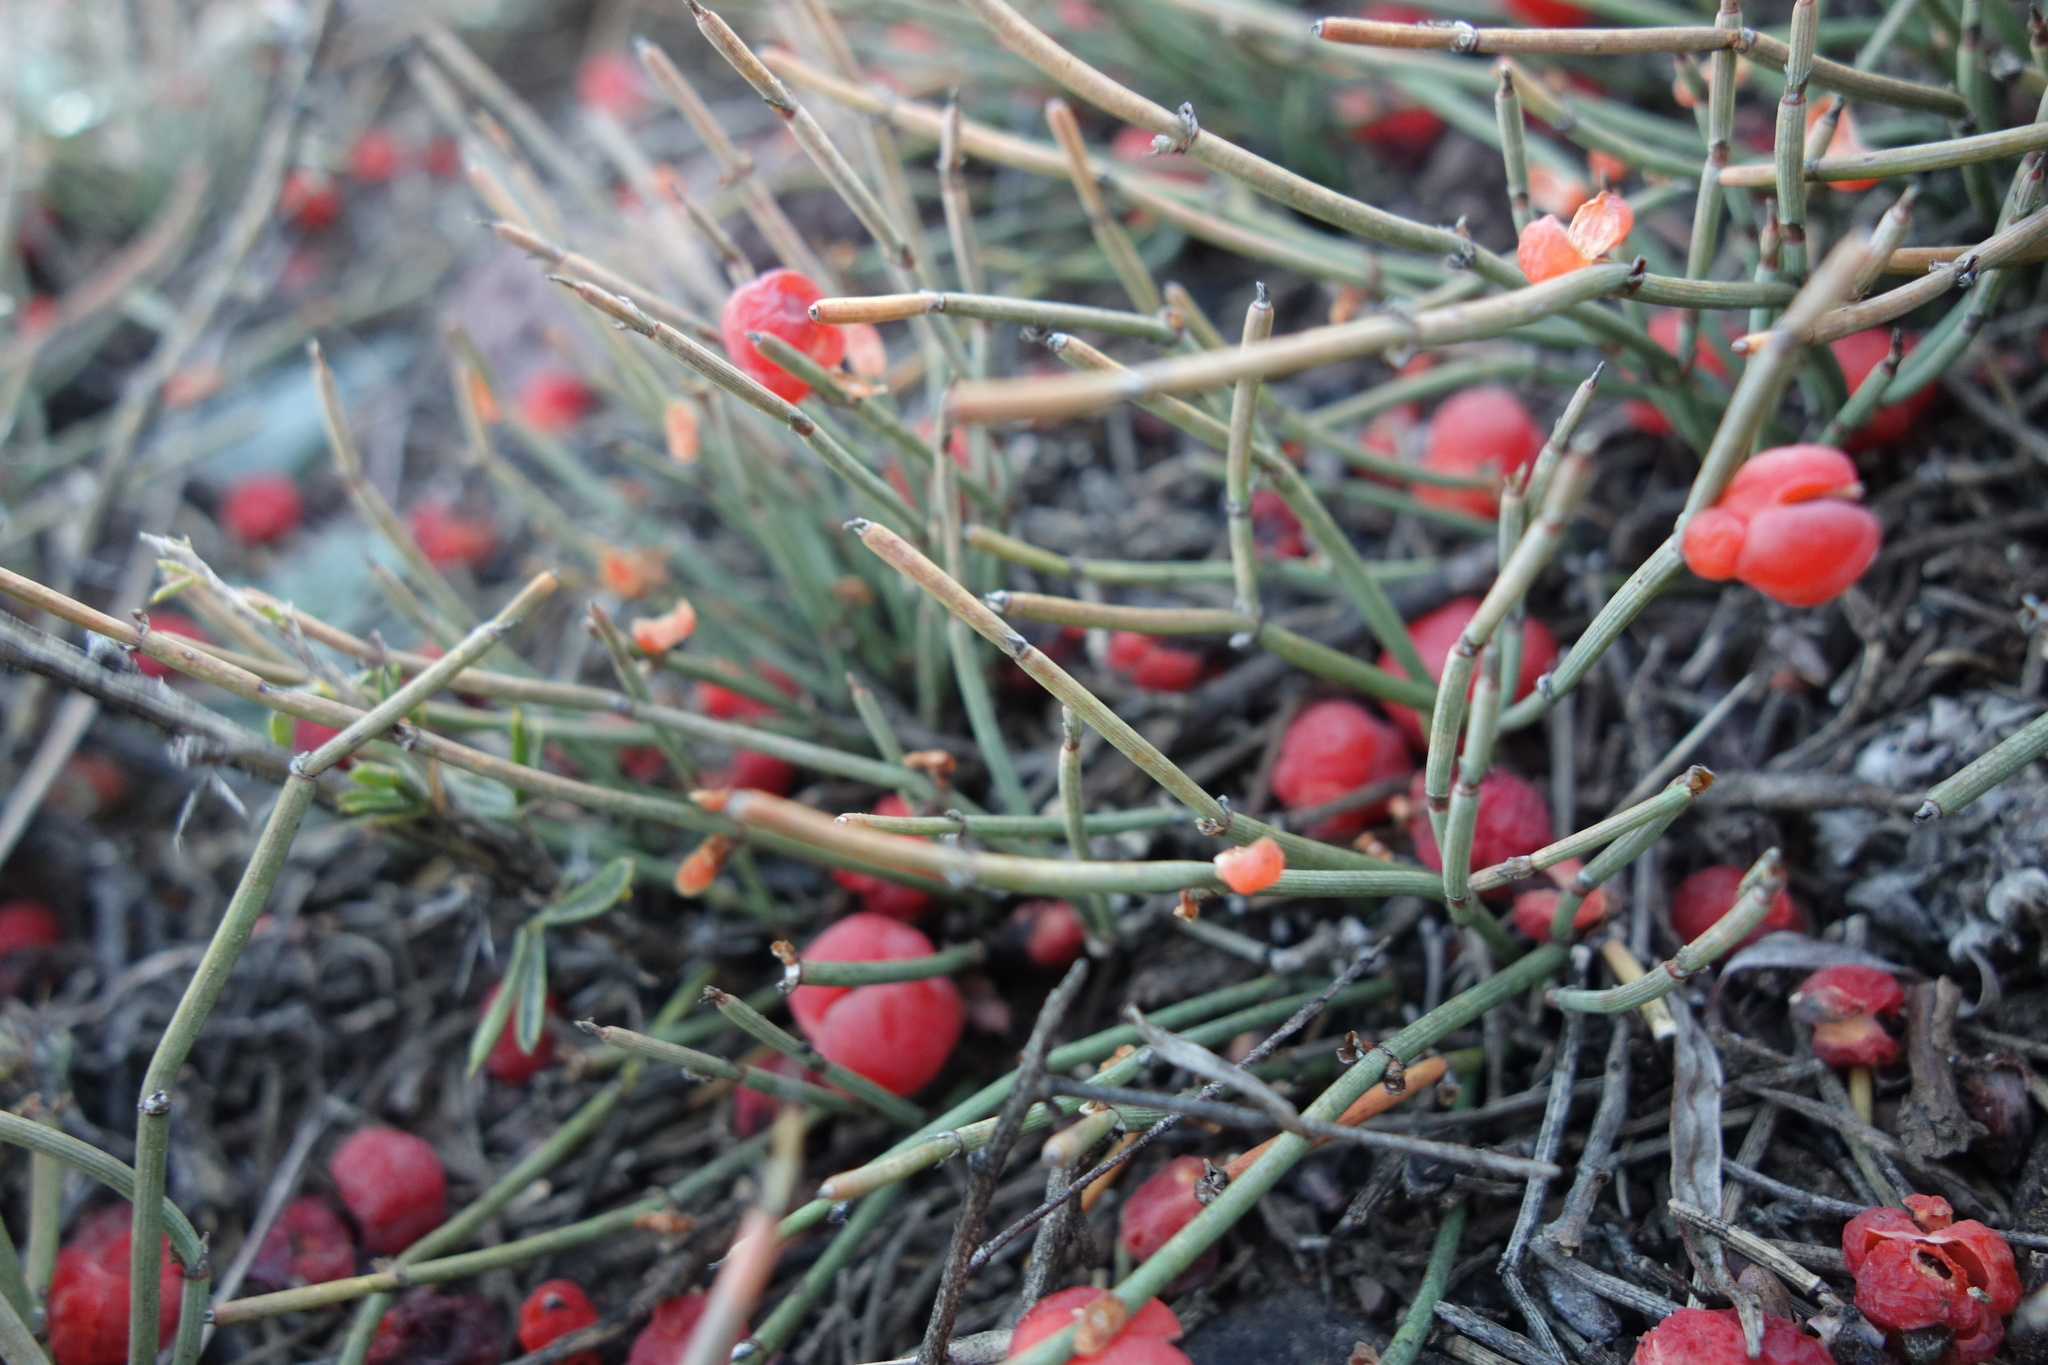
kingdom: Plantae
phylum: Tracheophyta
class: Gnetopsida
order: Ephedrales
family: Ephedraceae
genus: Ephedra
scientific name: Ephedra monosperma
